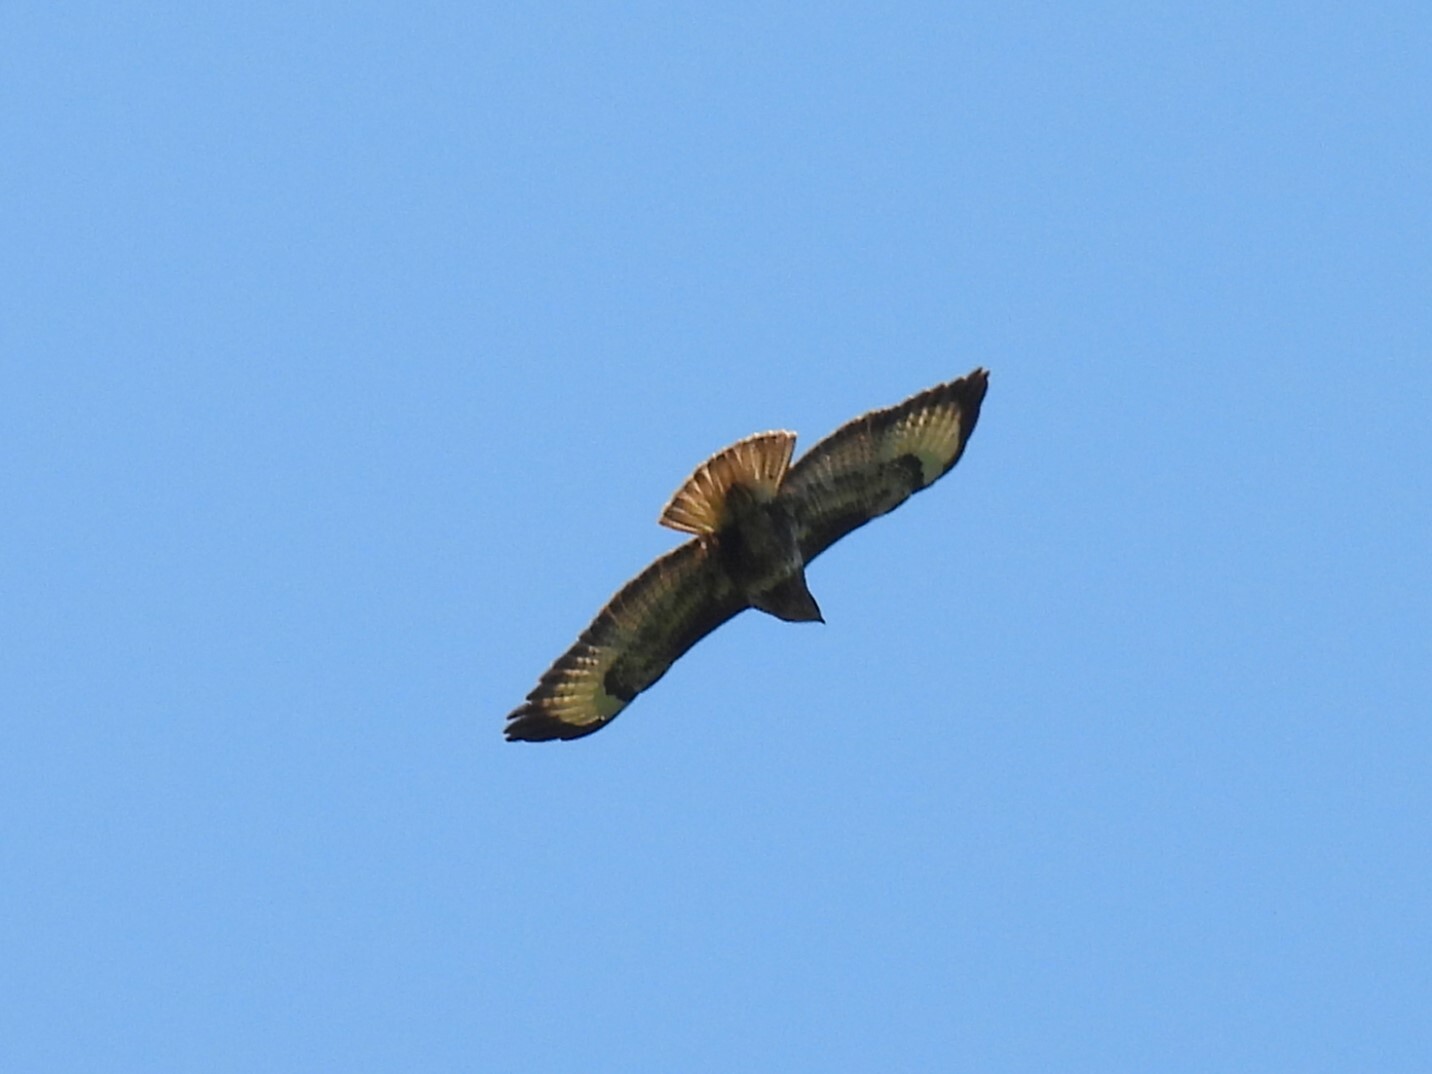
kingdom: Animalia
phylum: Chordata
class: Aves
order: Accipitriformes
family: Accipitridae
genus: Buteo
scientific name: Buteo buteo
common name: Common buzzard
